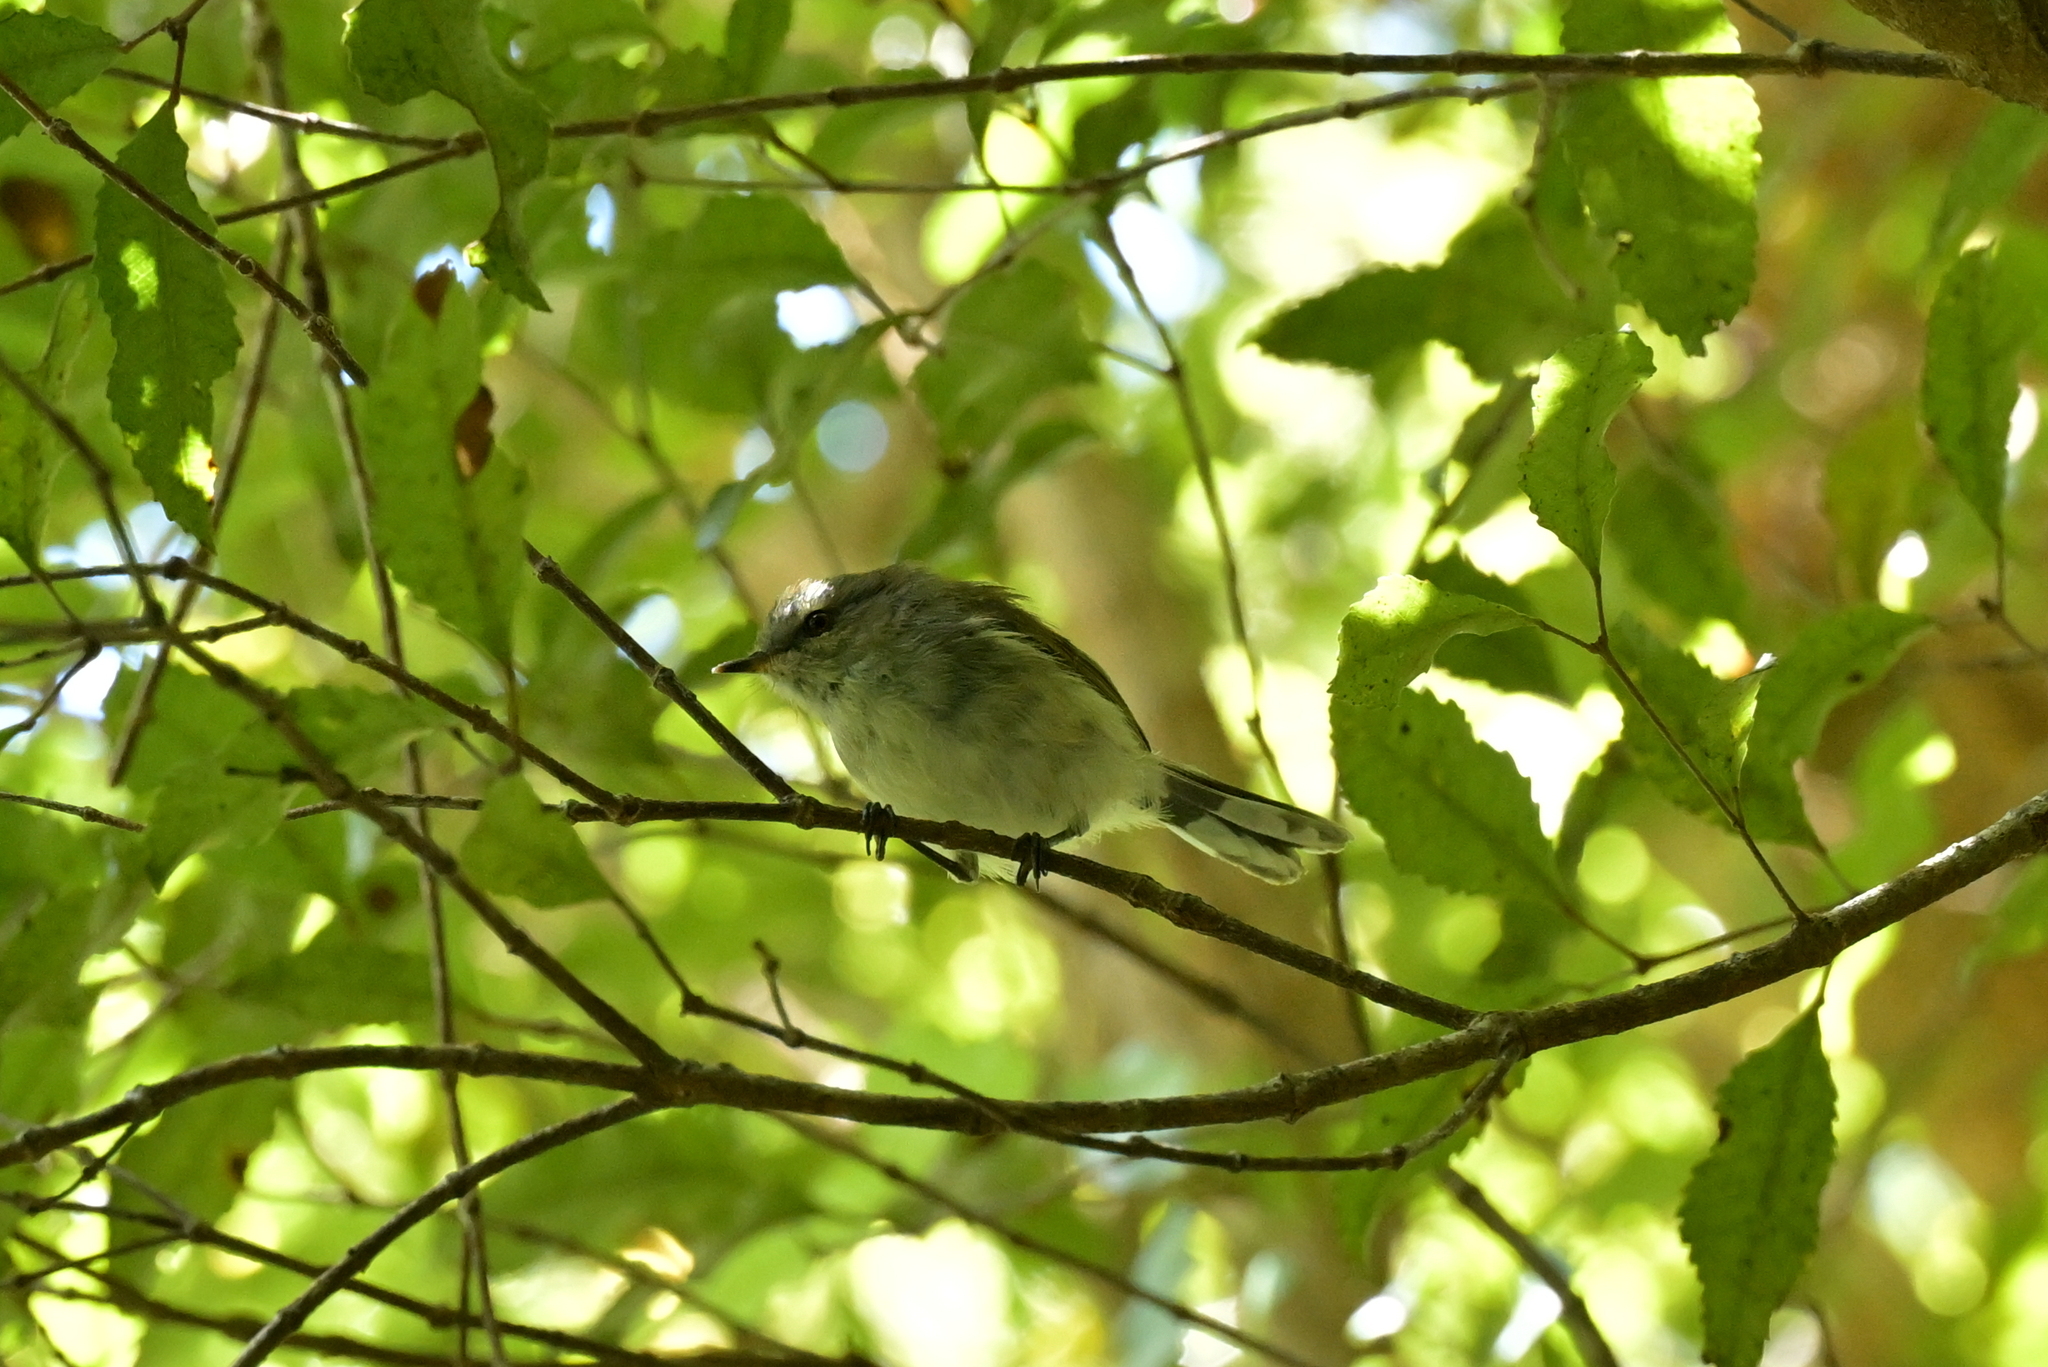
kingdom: Animalia
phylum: Chordata
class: Aves
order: Passeriformes
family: Acanthizidae
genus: Gerygone
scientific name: Gerygone igata
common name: Grey gerygone
